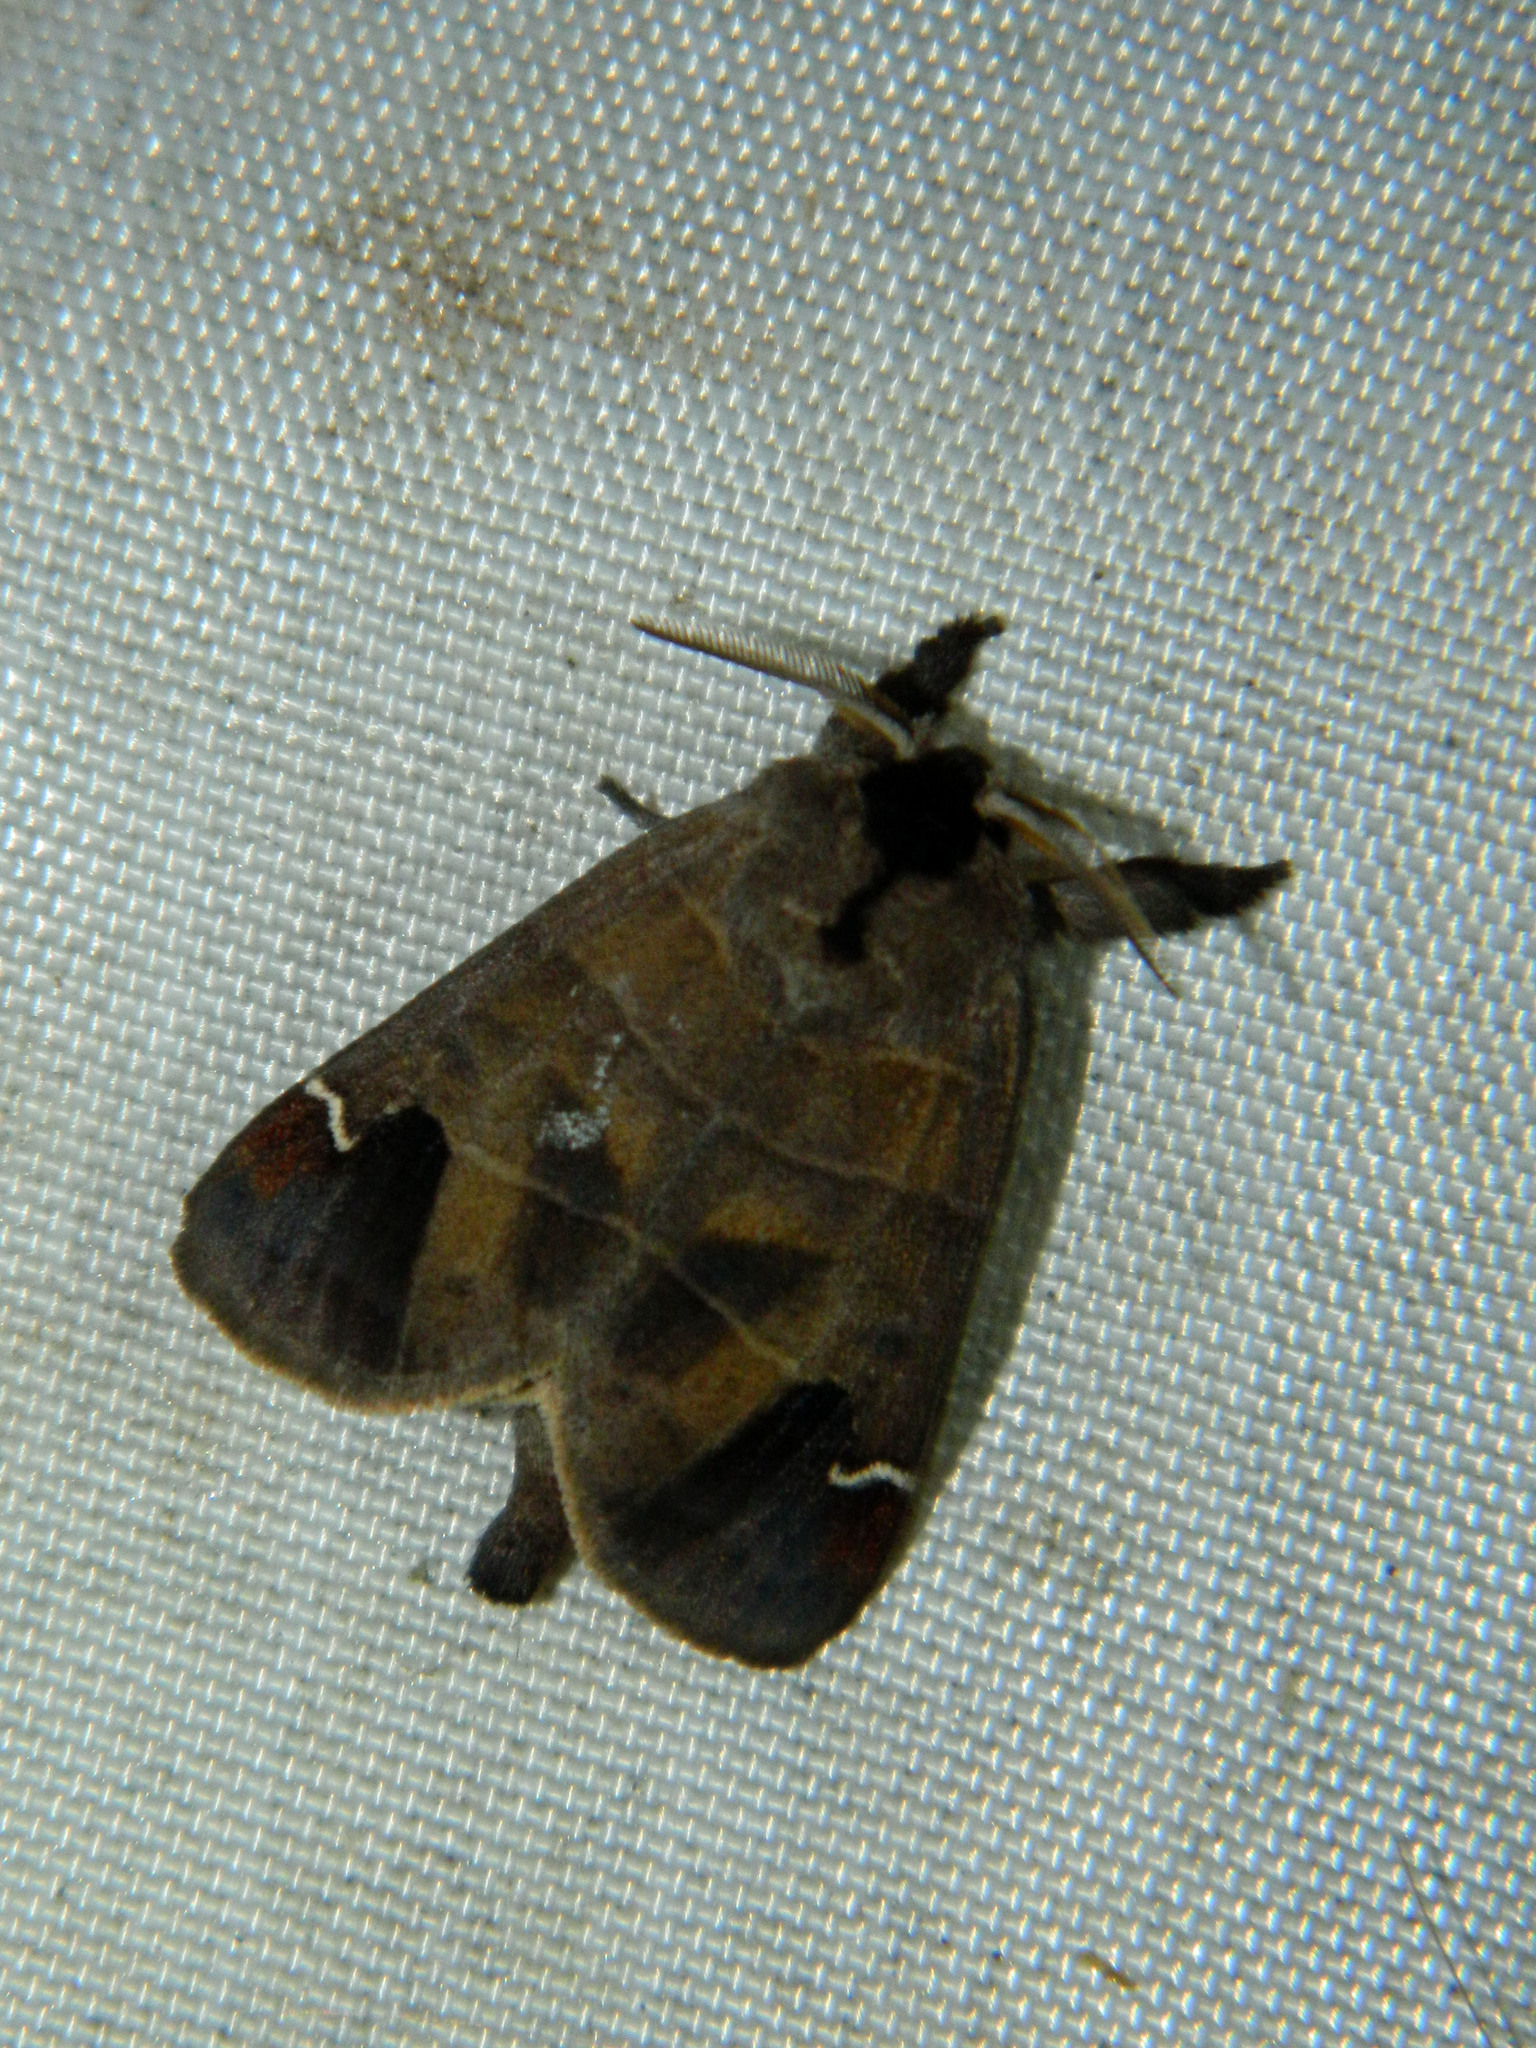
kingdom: Animalia
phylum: Arthropoda
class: Insecta
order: Lepidoptera
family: Notodontidae
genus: Clostera
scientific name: Clostera albosigma
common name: Sigmoid prominent
